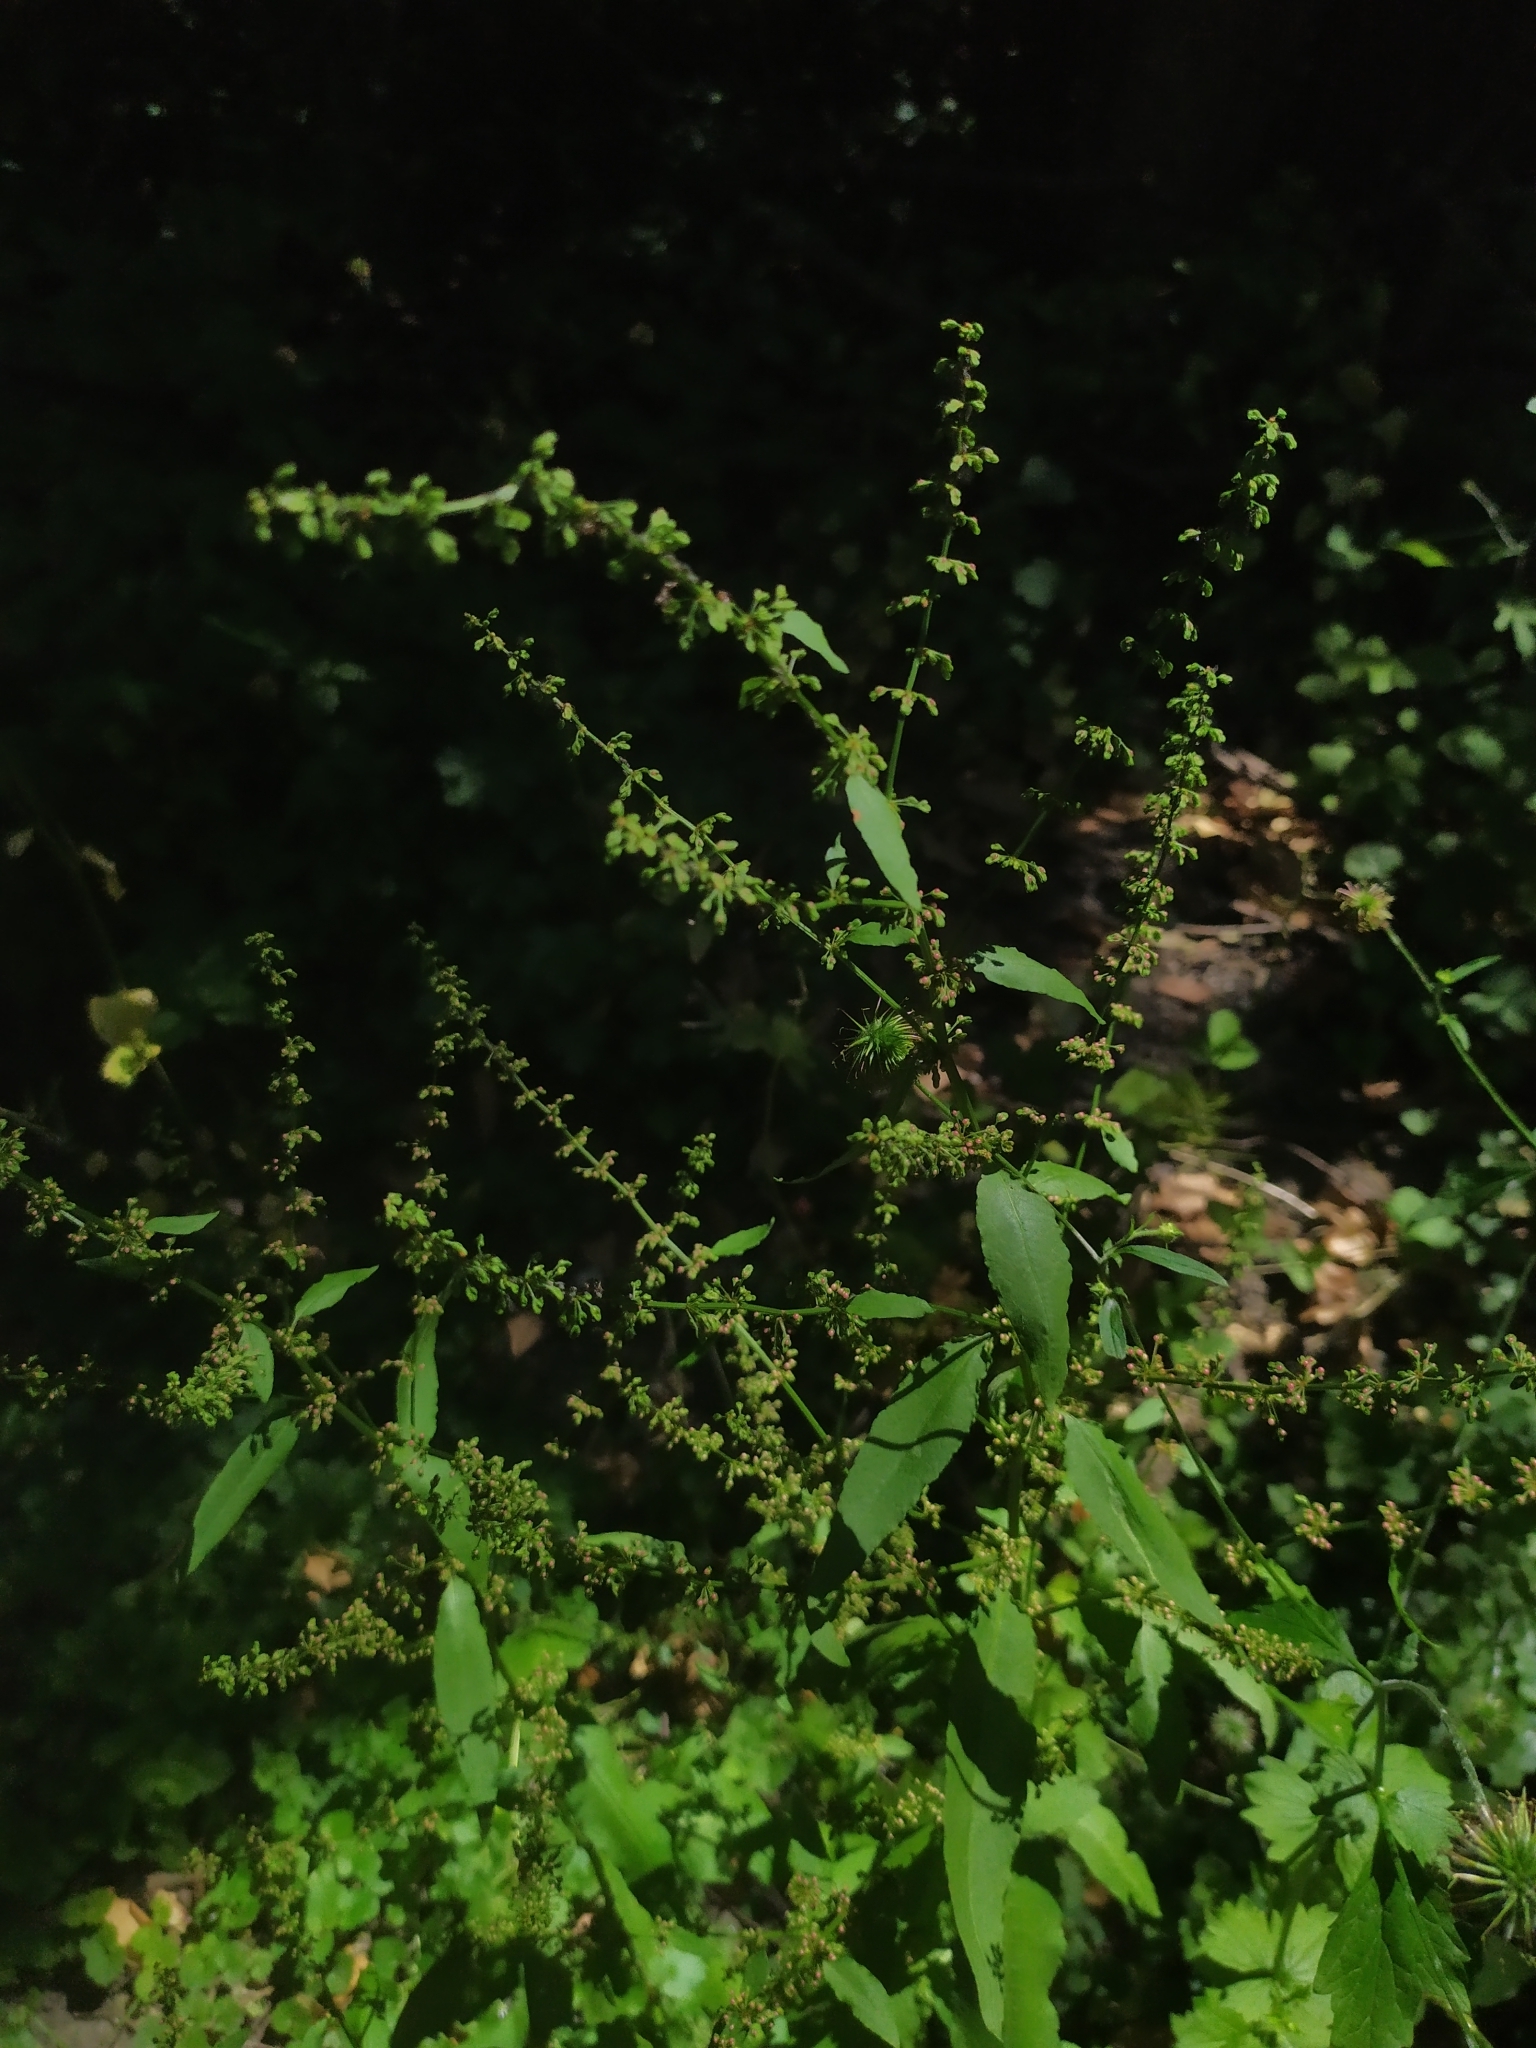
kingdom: Plantae
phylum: Tracheophyta
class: Magnoliopsida
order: Caryophyllales
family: Polygonaceae
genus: Rumex
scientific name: Rumex sanguineus
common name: Wood dock
